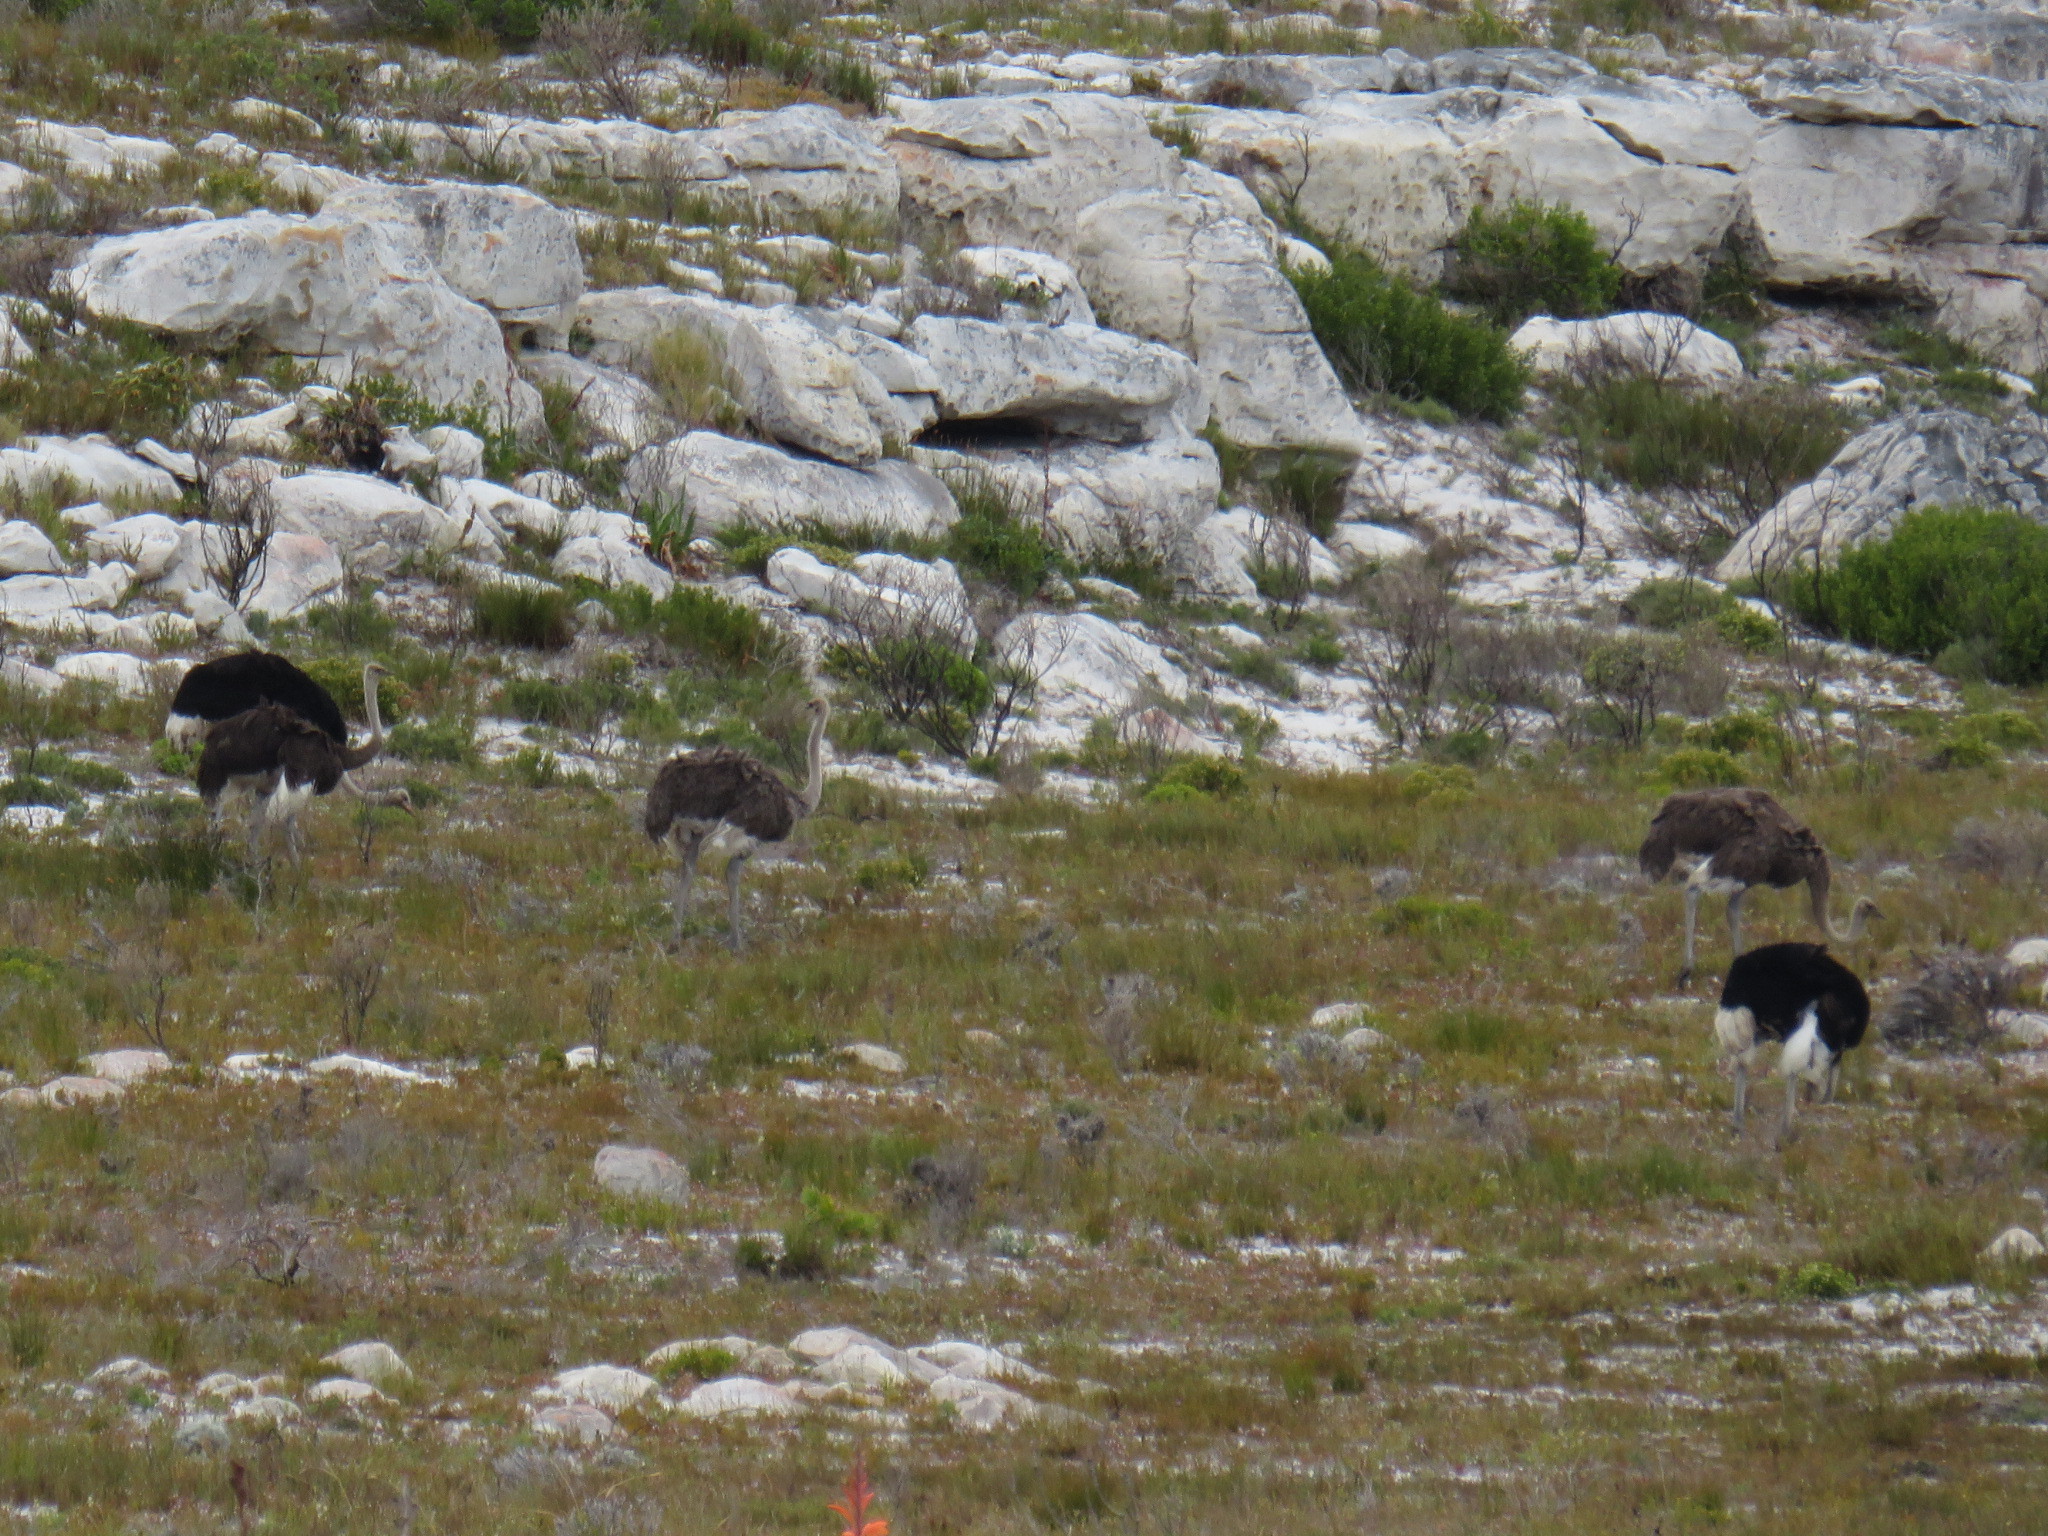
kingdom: Animalia
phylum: Chordata
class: Aves
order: Struthioniformes
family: Struthionidae
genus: Struthio
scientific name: Struthio camelus
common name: Common ostrich
